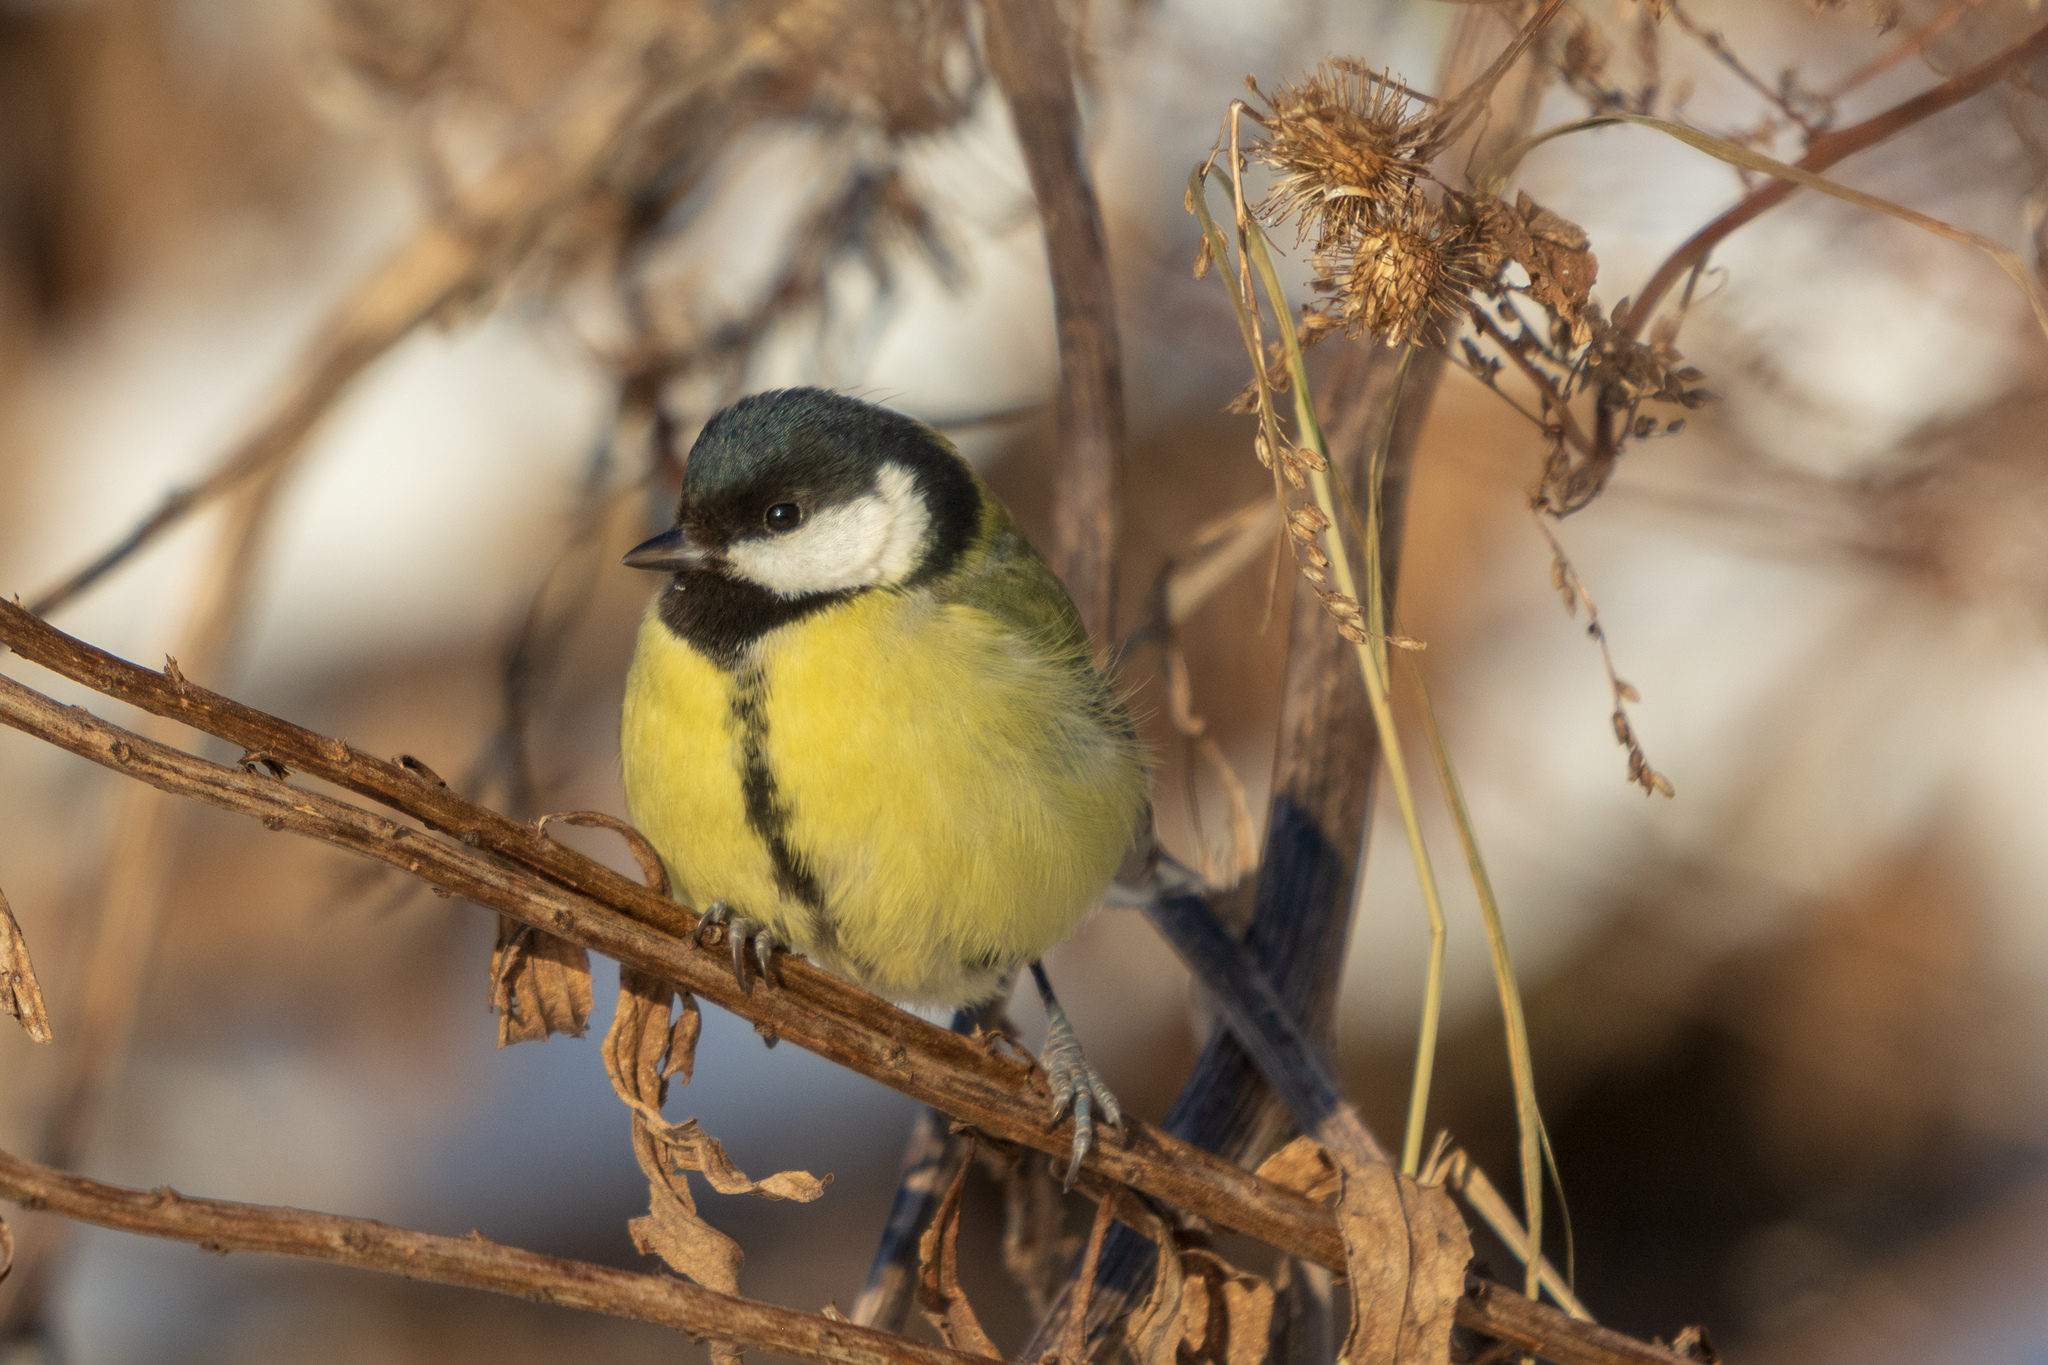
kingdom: Animalia
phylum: Chordata
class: Aves
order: Passeriformes
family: Paridae
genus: Parus
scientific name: Parus major
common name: Great tit
